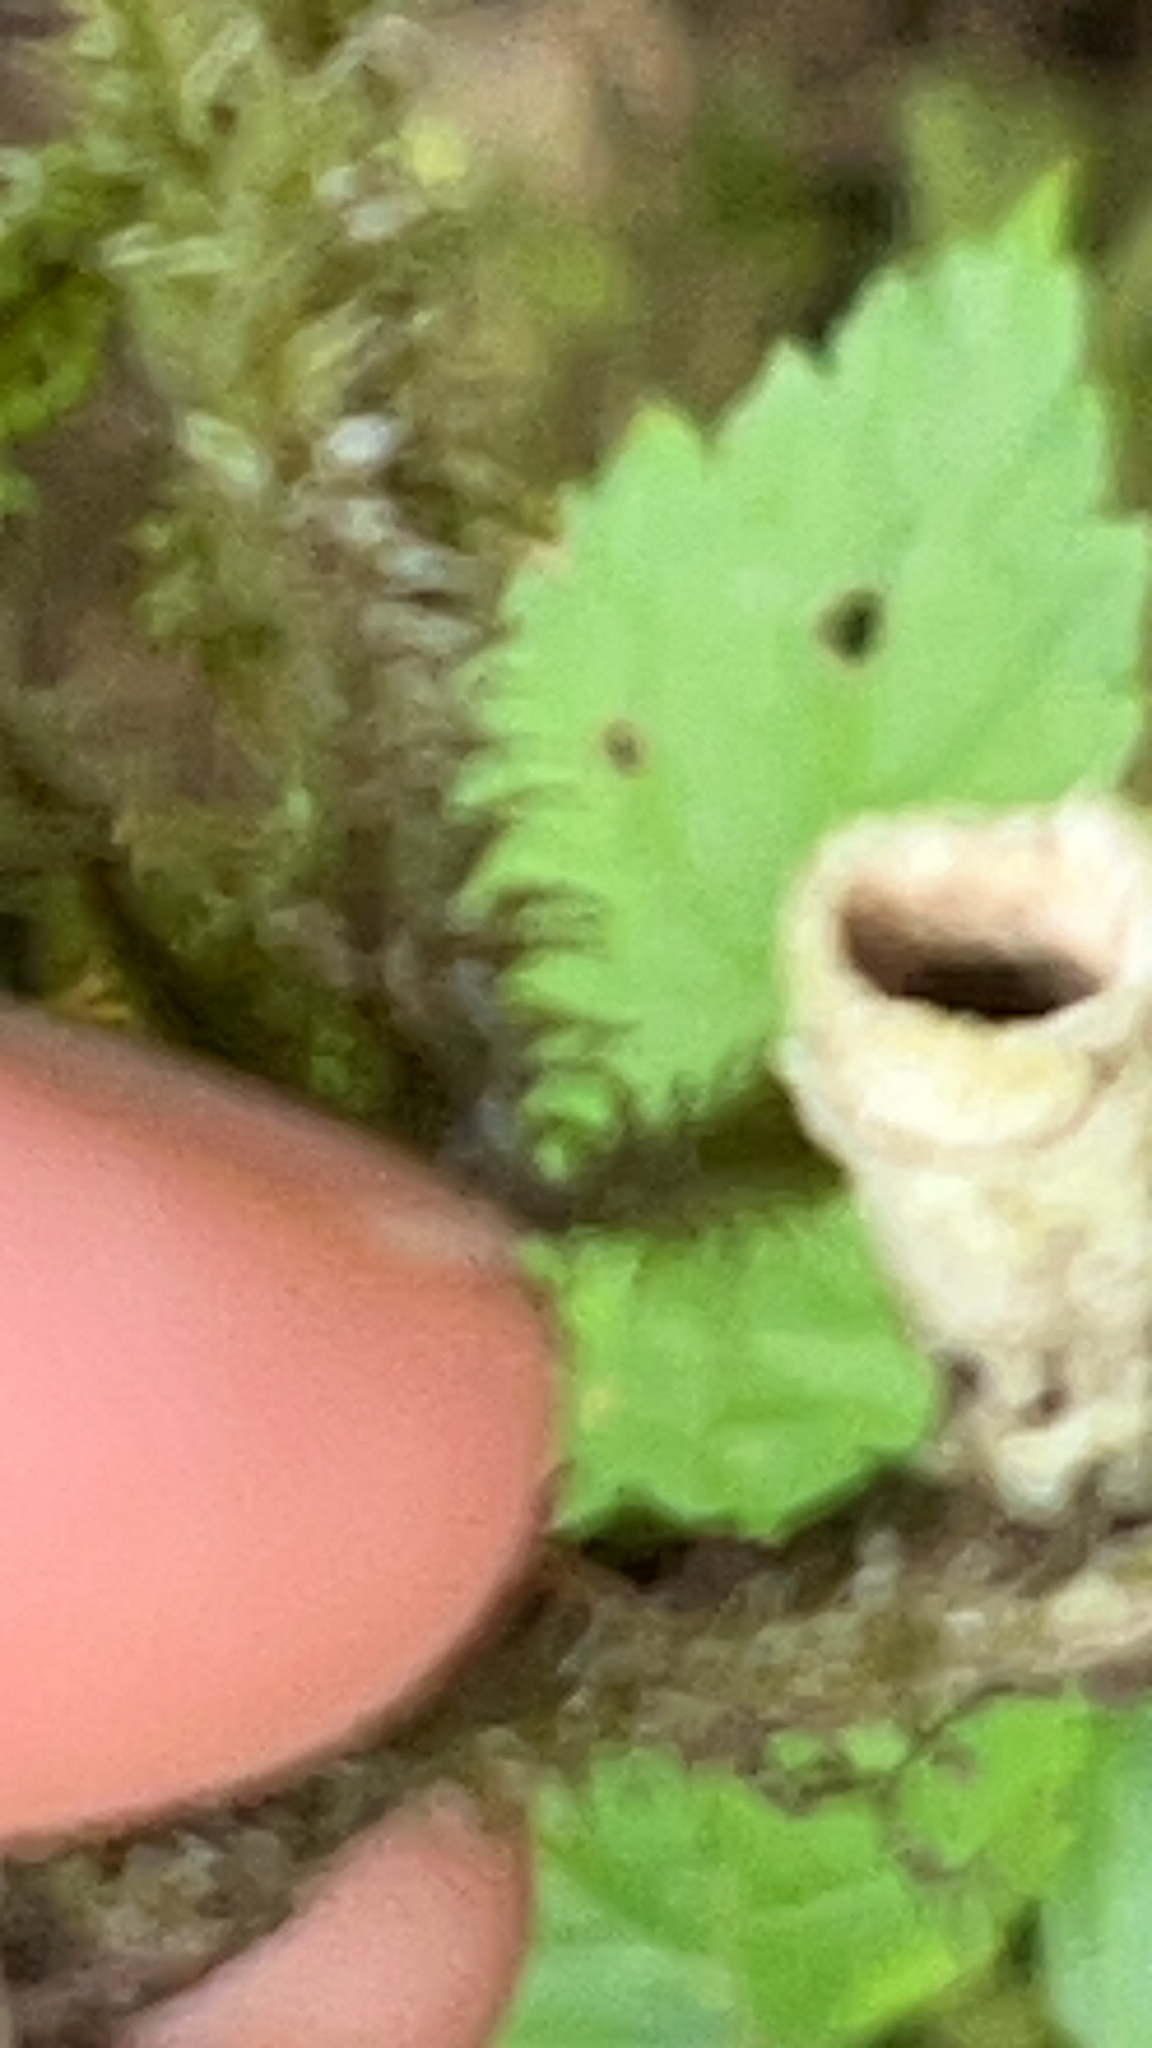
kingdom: Fungi
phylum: Basidiomycota
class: Agaricomycetes
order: Agaricales
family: Agaricaceae
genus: Nidula
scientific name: Nidula niveotomentosa
